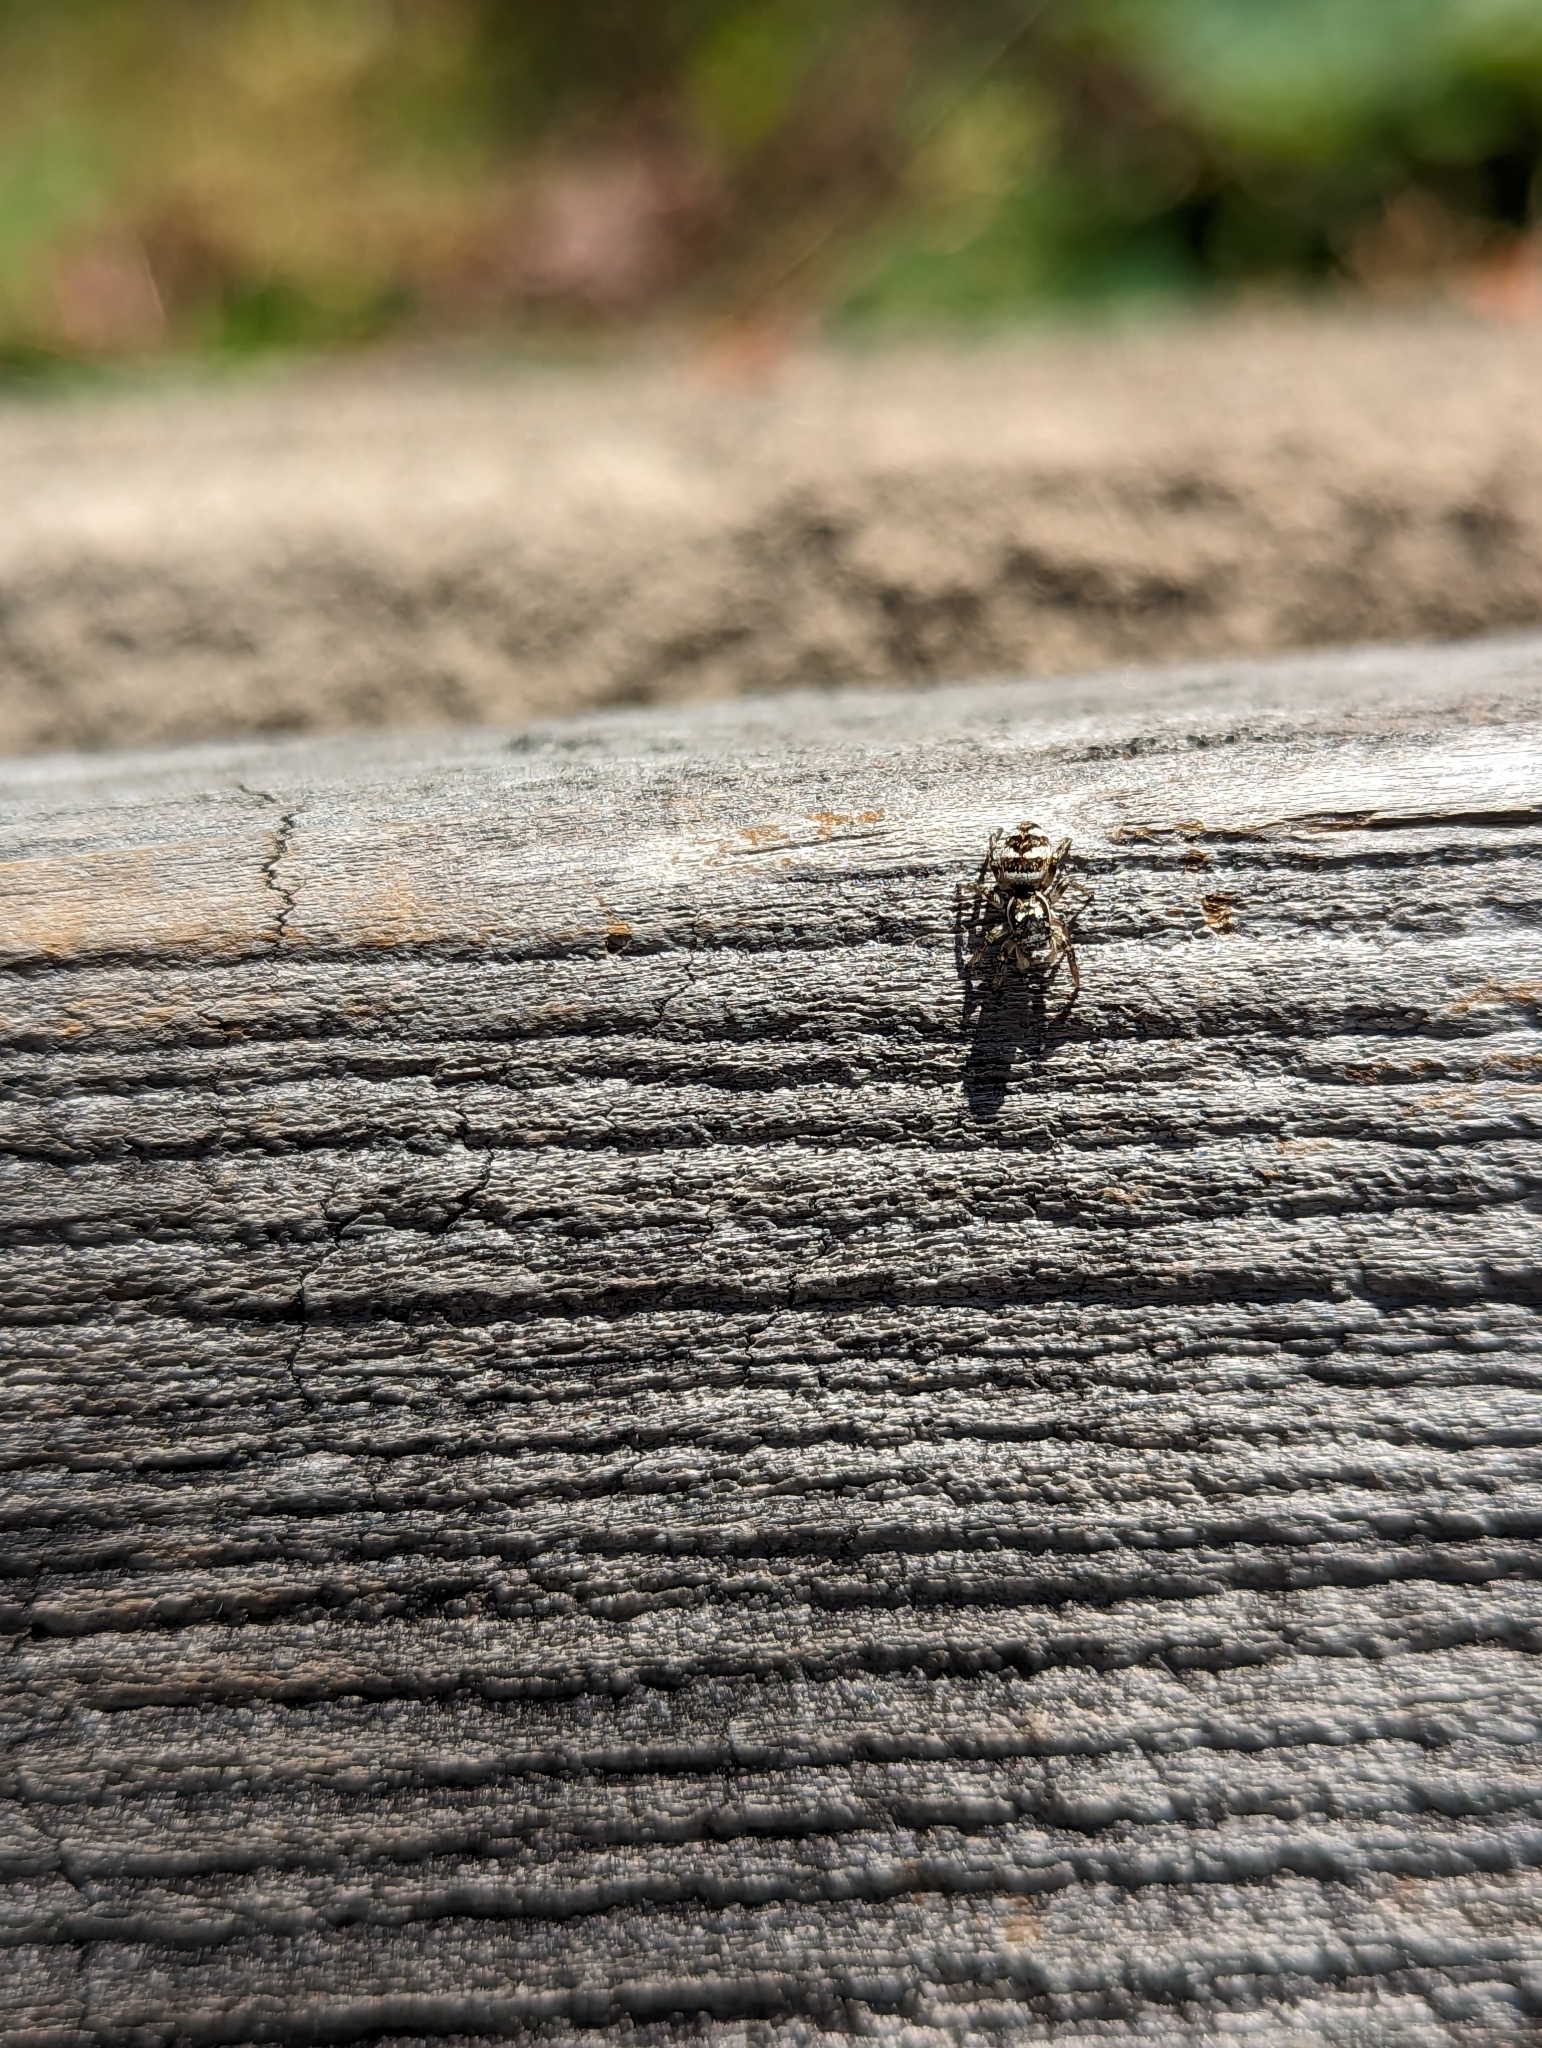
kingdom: Animalia
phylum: Arthropoda
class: Arachnida
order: Araneae
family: Salticidae
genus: Salticus
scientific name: Salticus scenicus
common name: Zebra jumper
